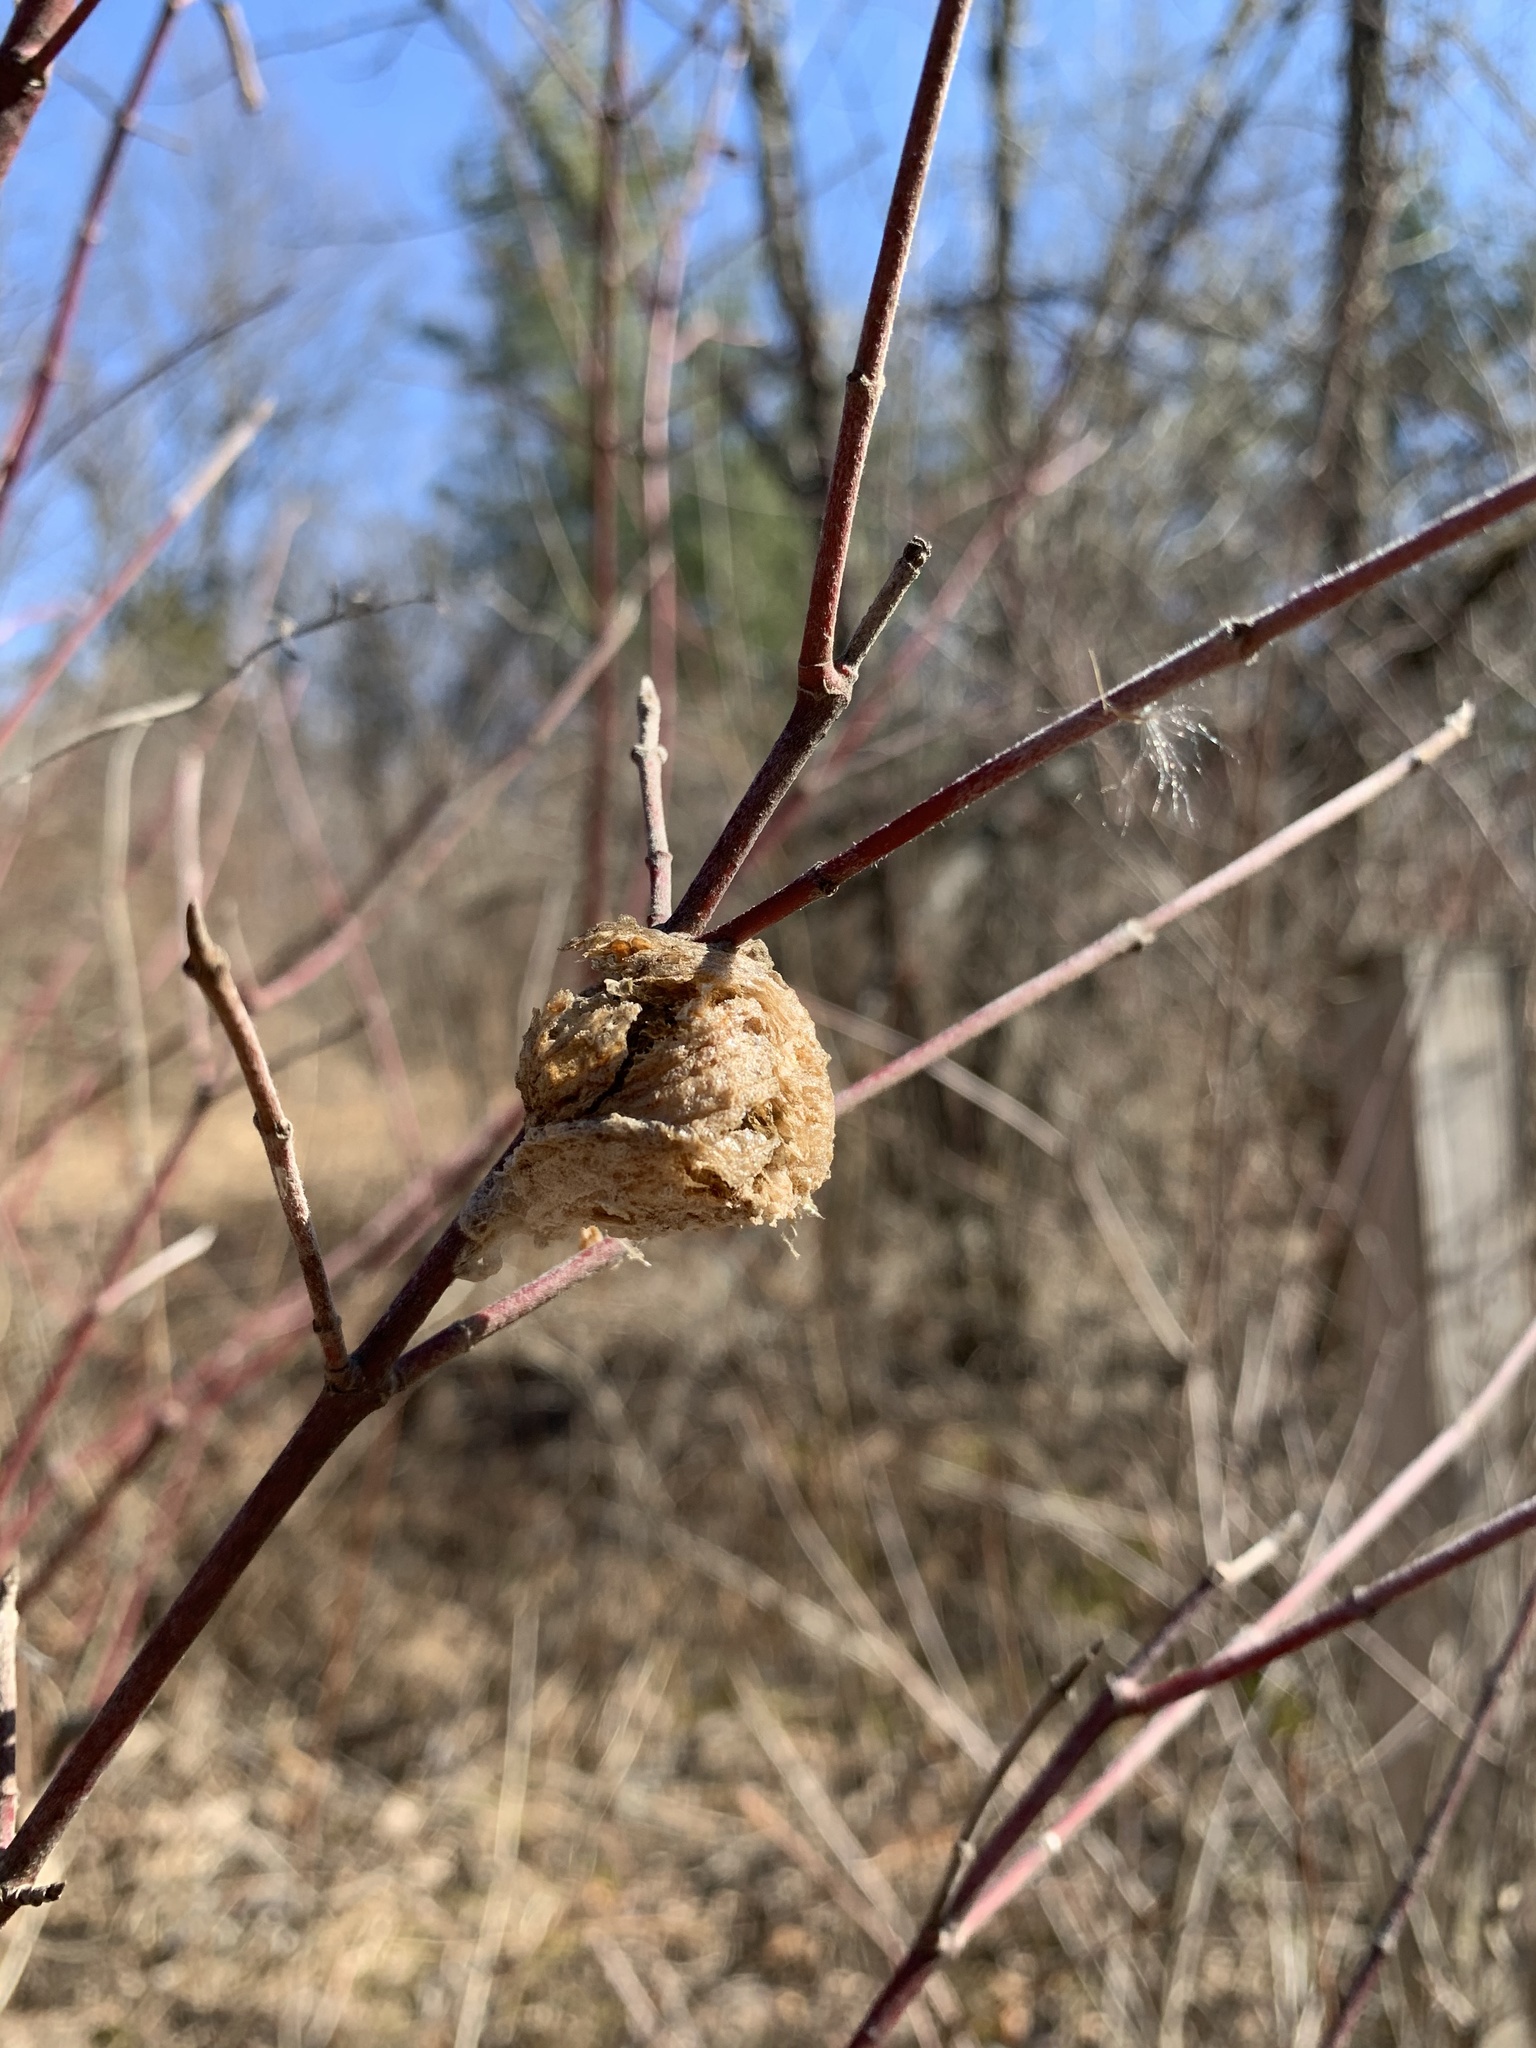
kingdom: Animalia
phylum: Arthropoda
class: Insecta
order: Mantodea
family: Mantidae
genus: Tenodera
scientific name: Tenodera sinensis
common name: Chinese mantis
